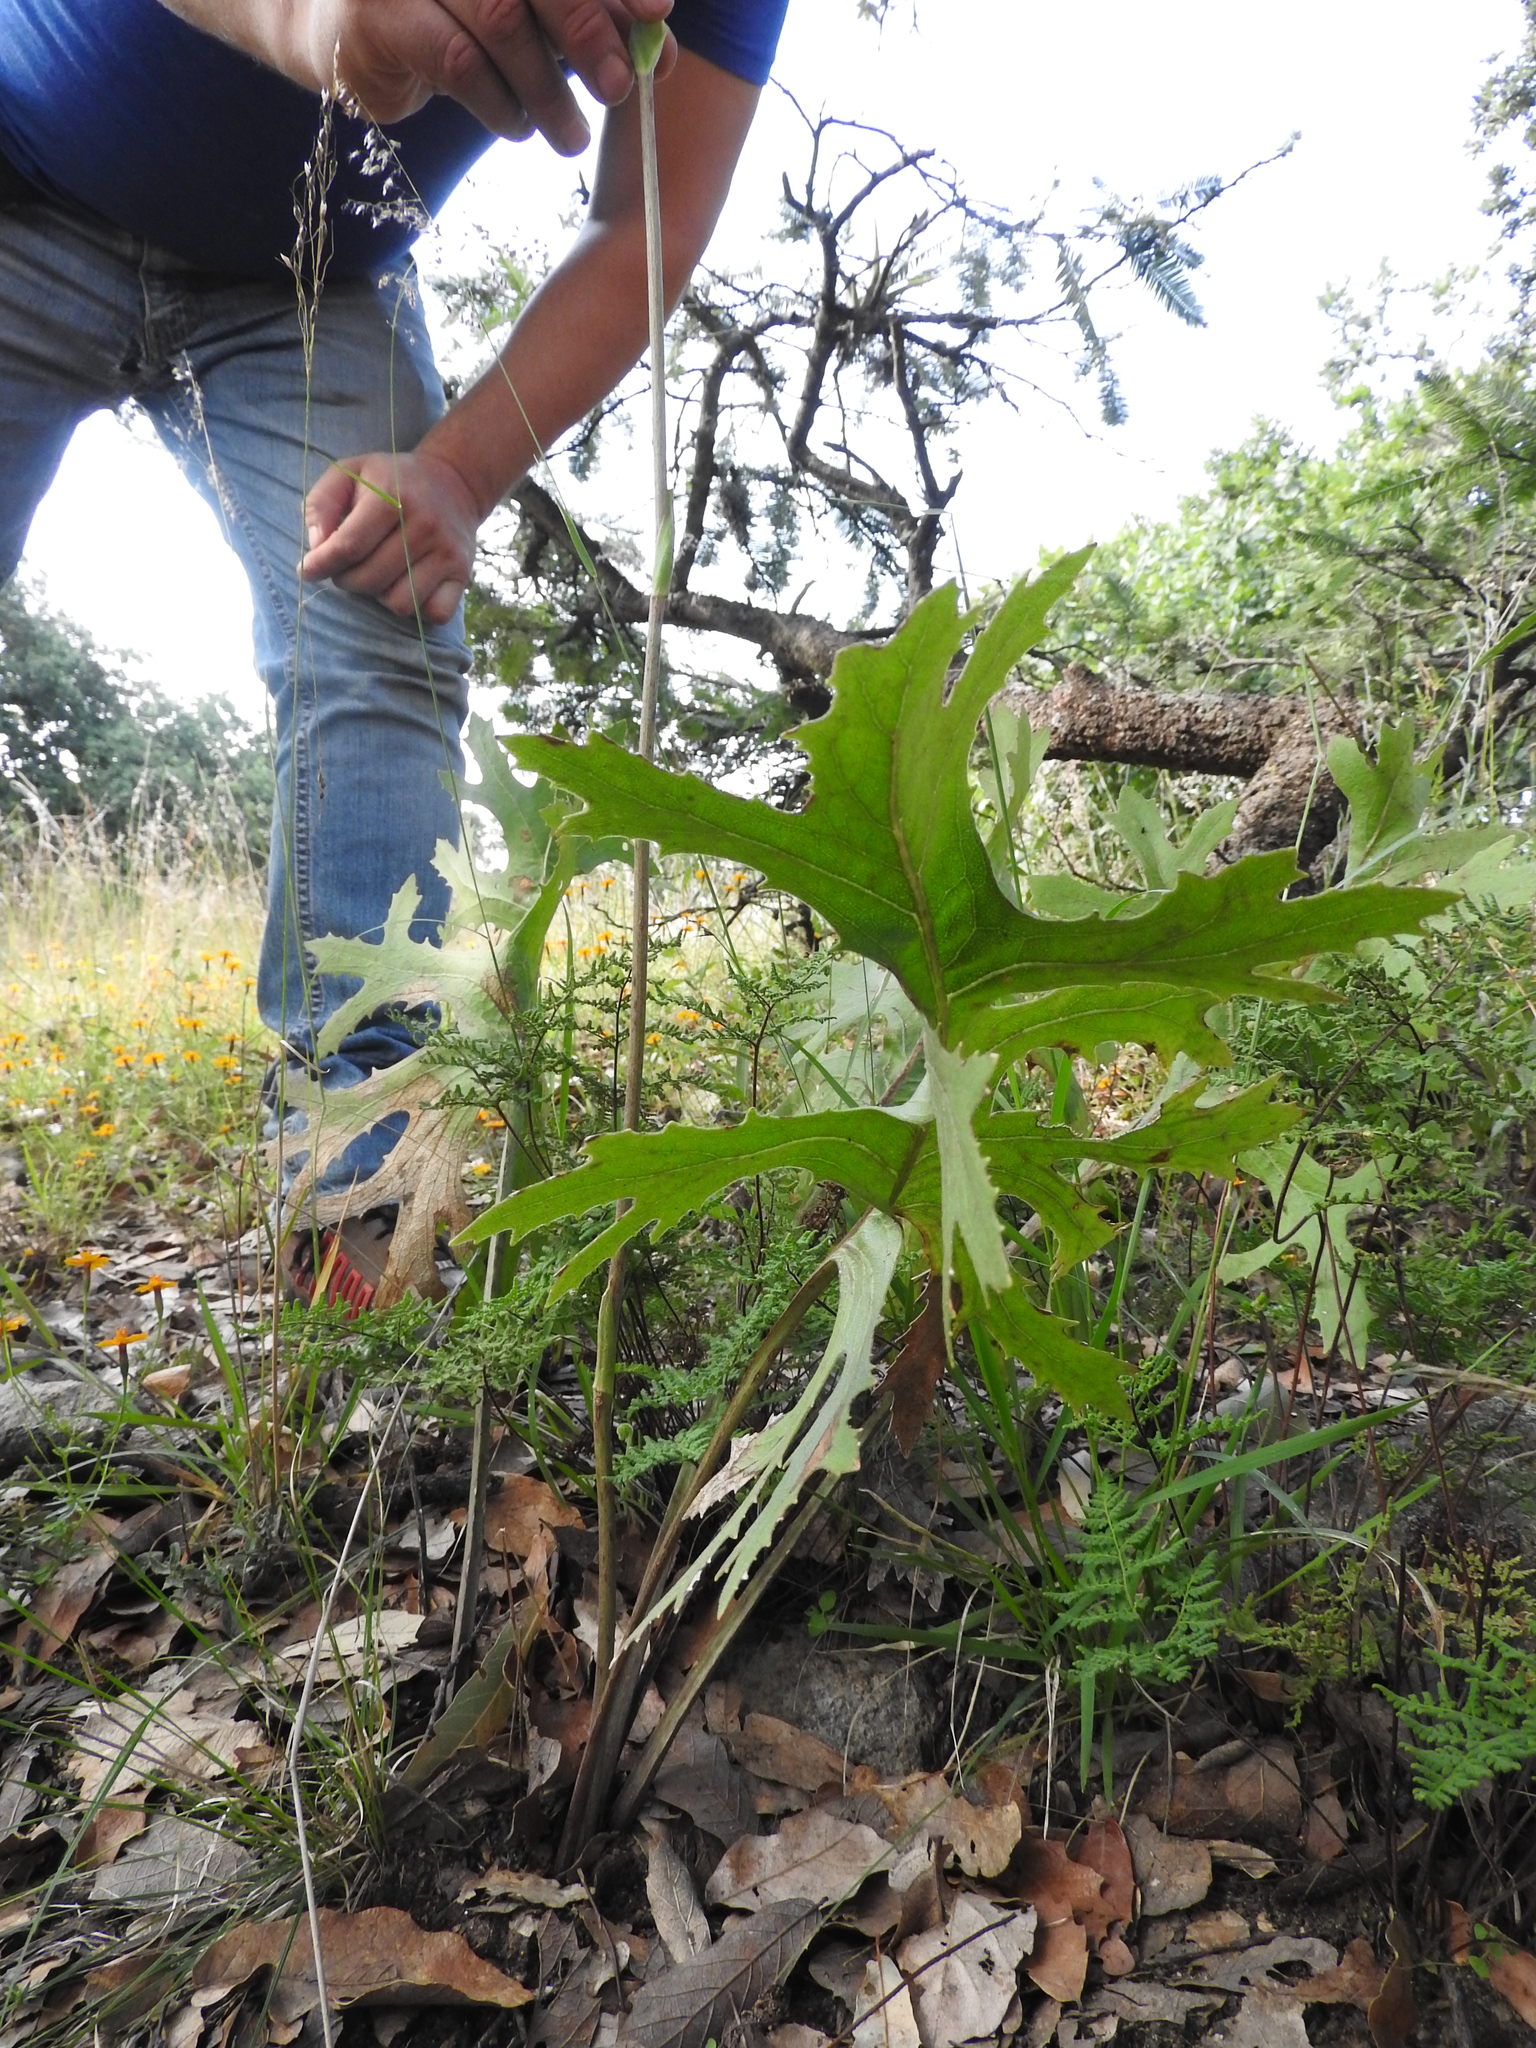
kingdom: Plantae
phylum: Tracheophyta
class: Magnoliopsida
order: Asterales
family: Asteraceae
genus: Psacalium
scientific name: Psacalium sinuatum
